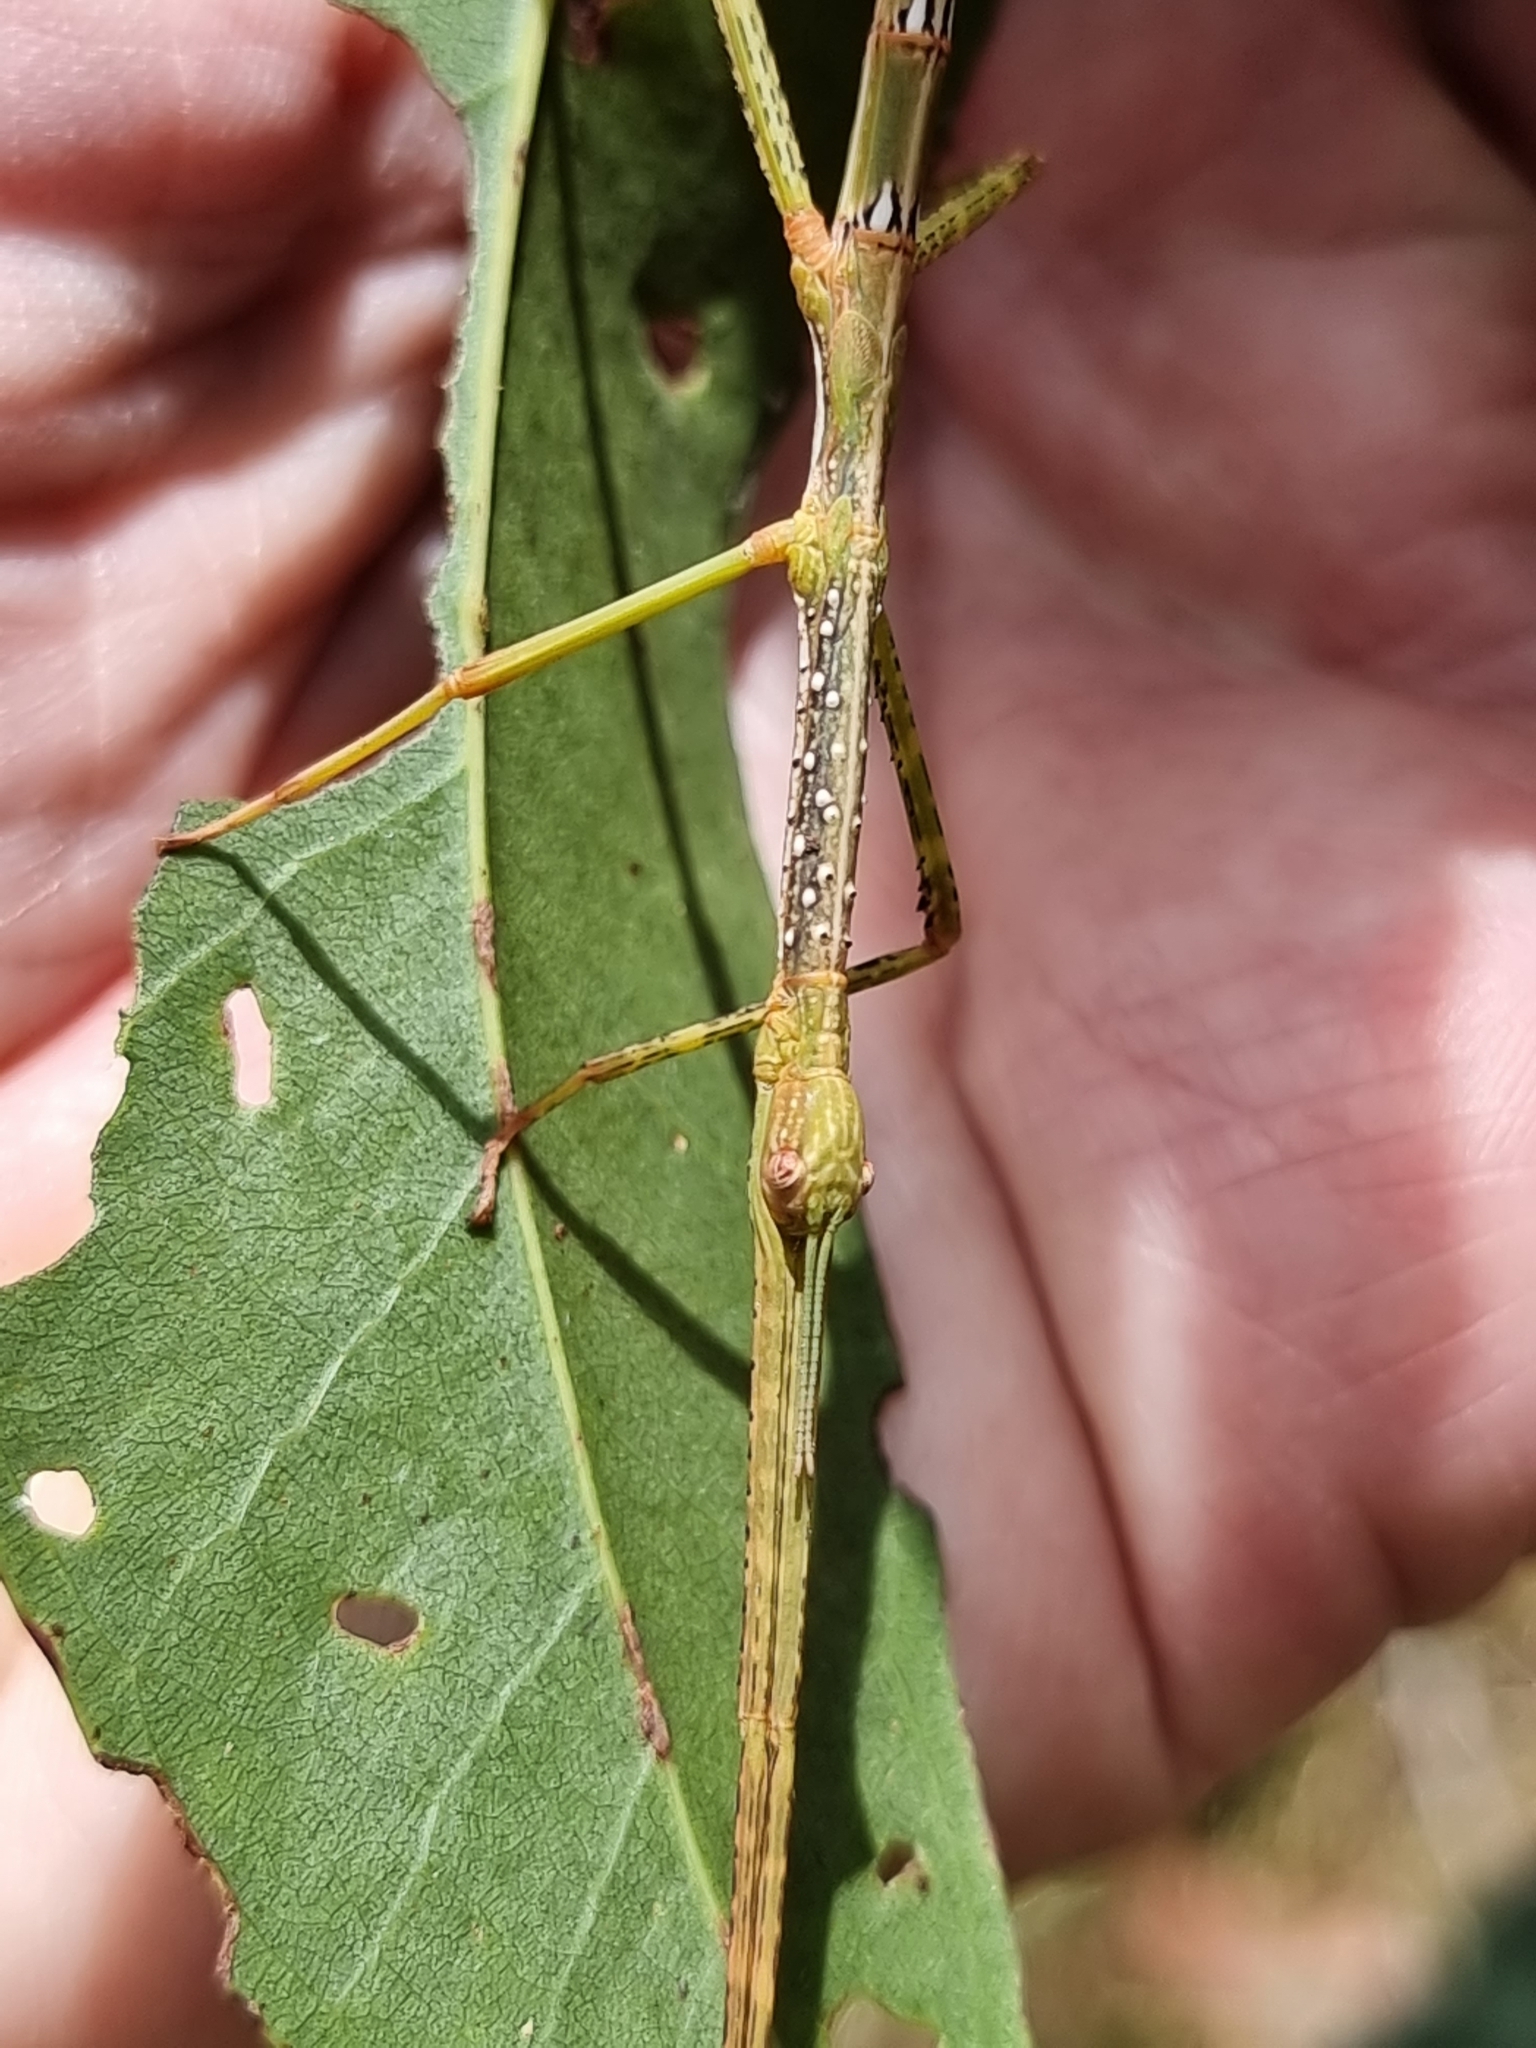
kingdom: Animalia
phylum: Arthropoda
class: Insecta
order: Phasmida
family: Phasmatidae
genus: Anchiale
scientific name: Anchiale austrotessulata
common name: Tessellated stick-insect
